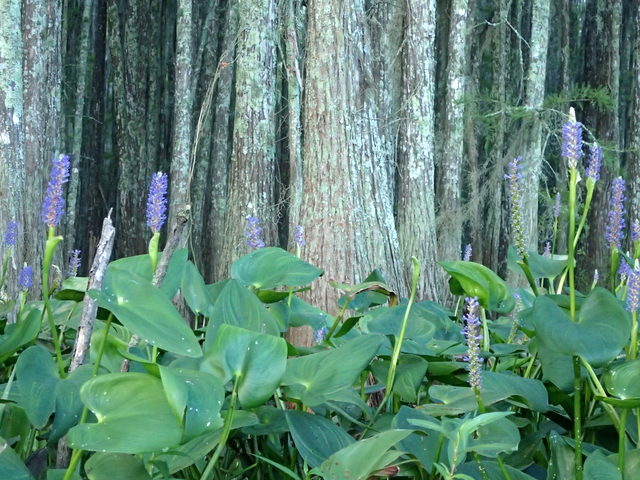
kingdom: Plantae
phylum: Tracheophyta
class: Liliopsida
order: Commelinales
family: Pontederiaceae
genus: Pontederia
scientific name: Pontederia cordata
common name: Pickerelweed
